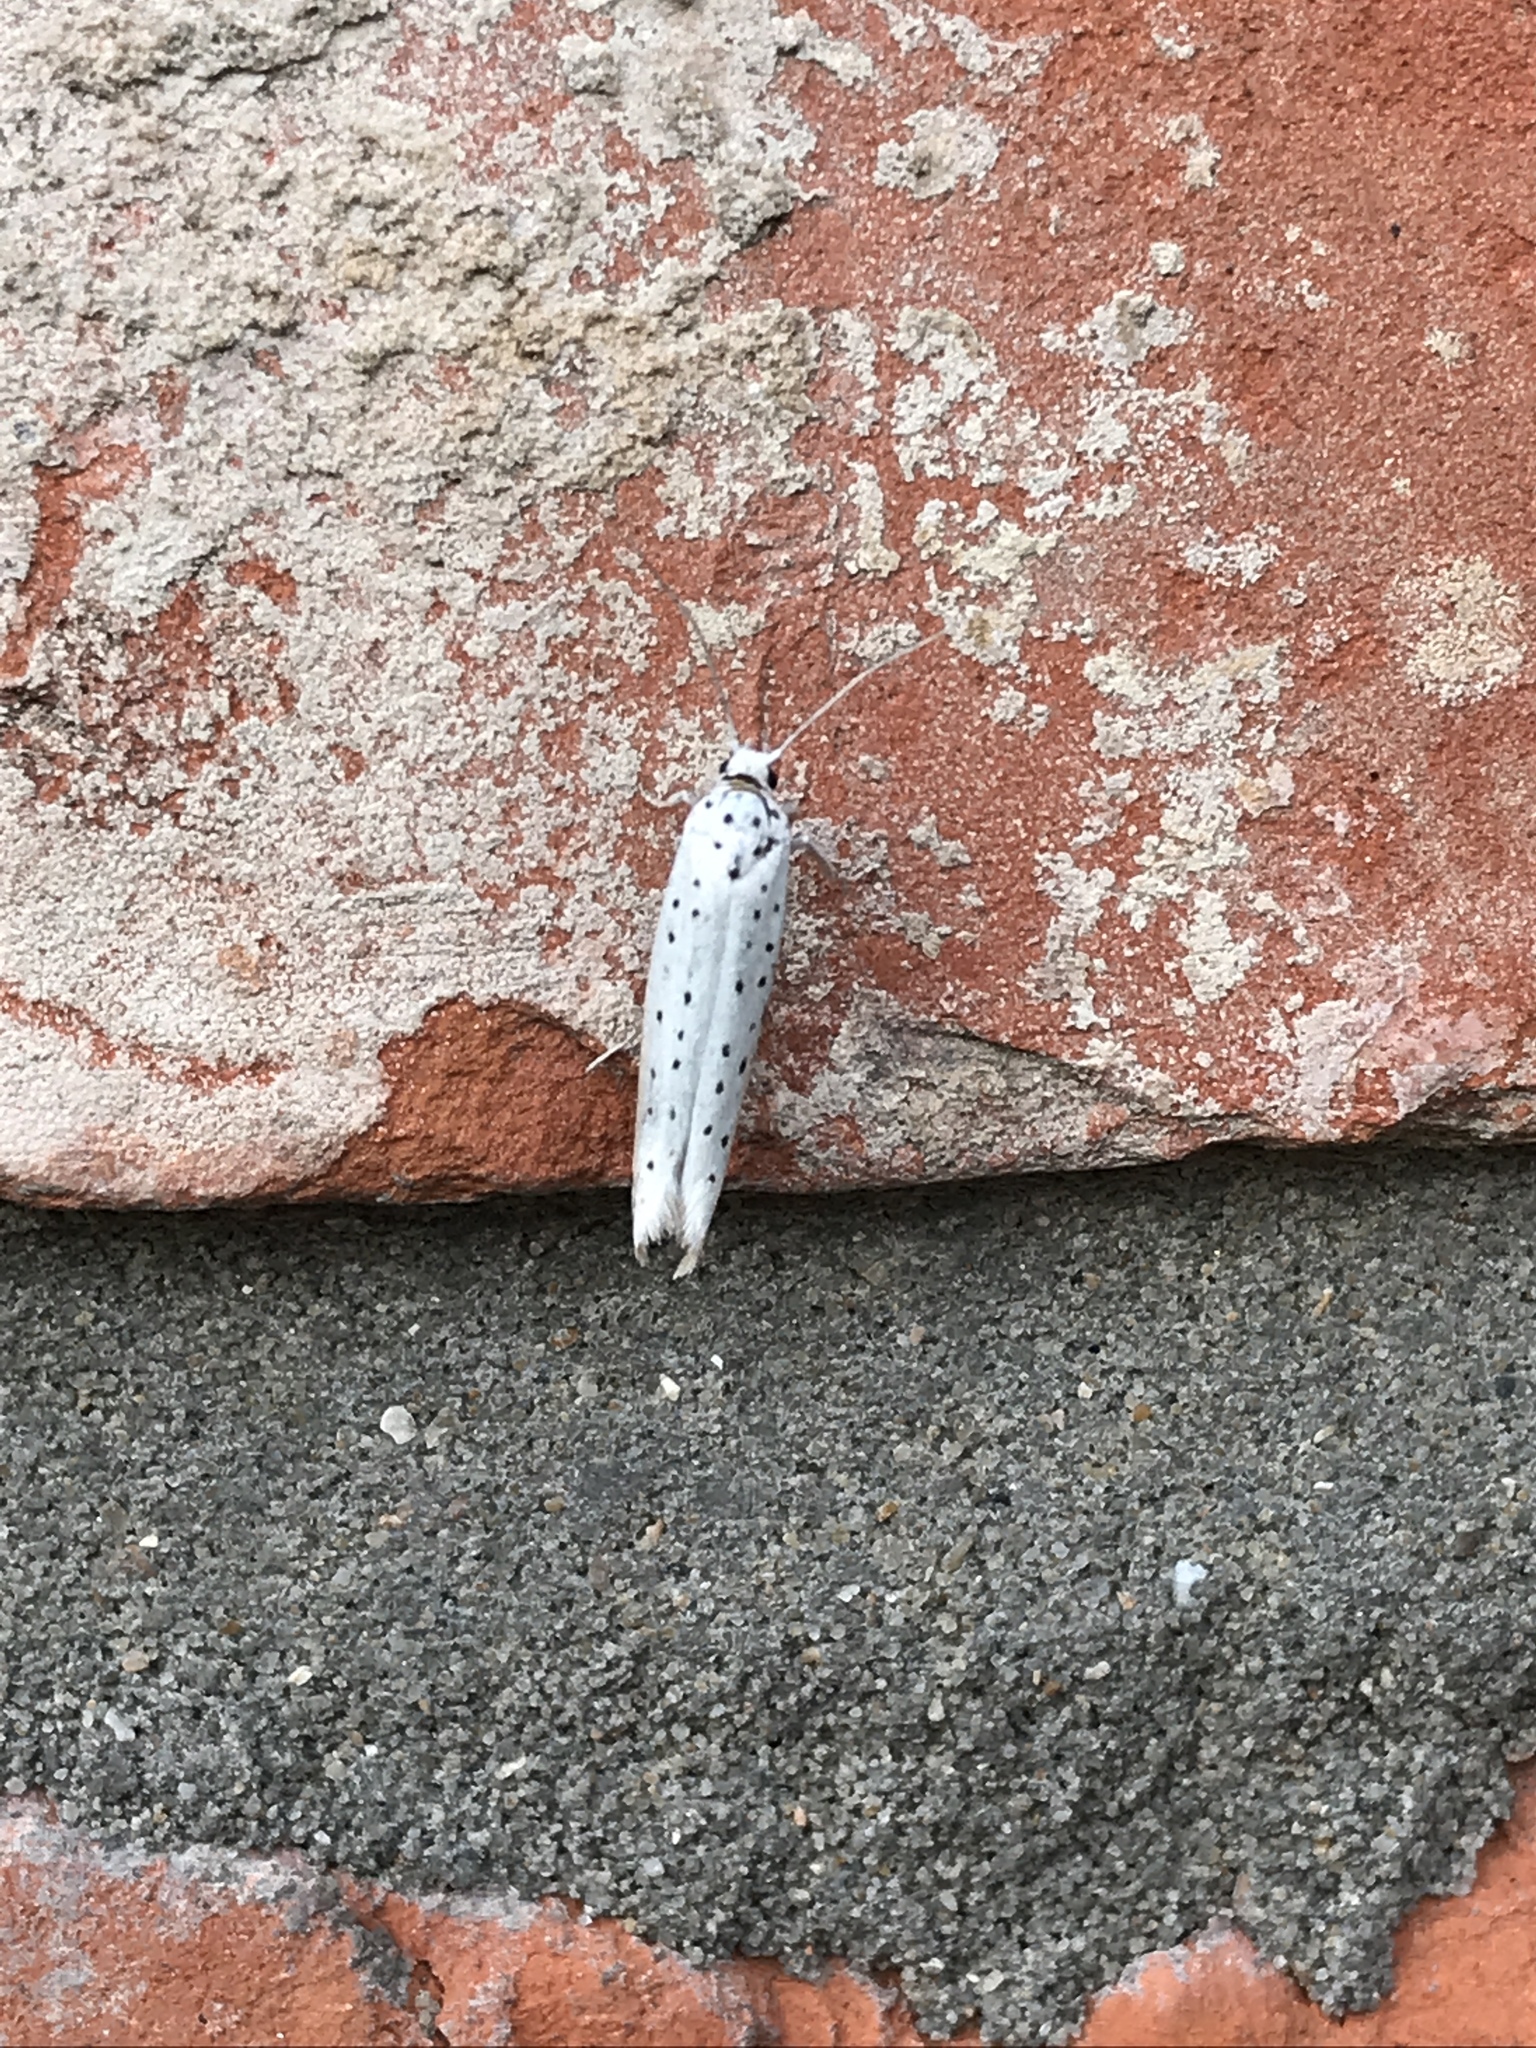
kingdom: Animalia
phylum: Arthropoda
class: Insecta
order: Lepidoptera
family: Yponomeutidae
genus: Yponomeuta
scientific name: Yponomeuta evonymella
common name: Bird-cherry ermine
